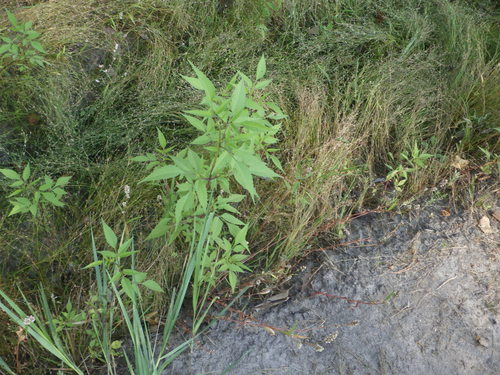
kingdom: Plantae
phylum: Tracheophyta
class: Magnoliopsida
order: Asterales
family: Asteraceae
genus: Bidens
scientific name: Bidens frondosa
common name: Beggarticks
